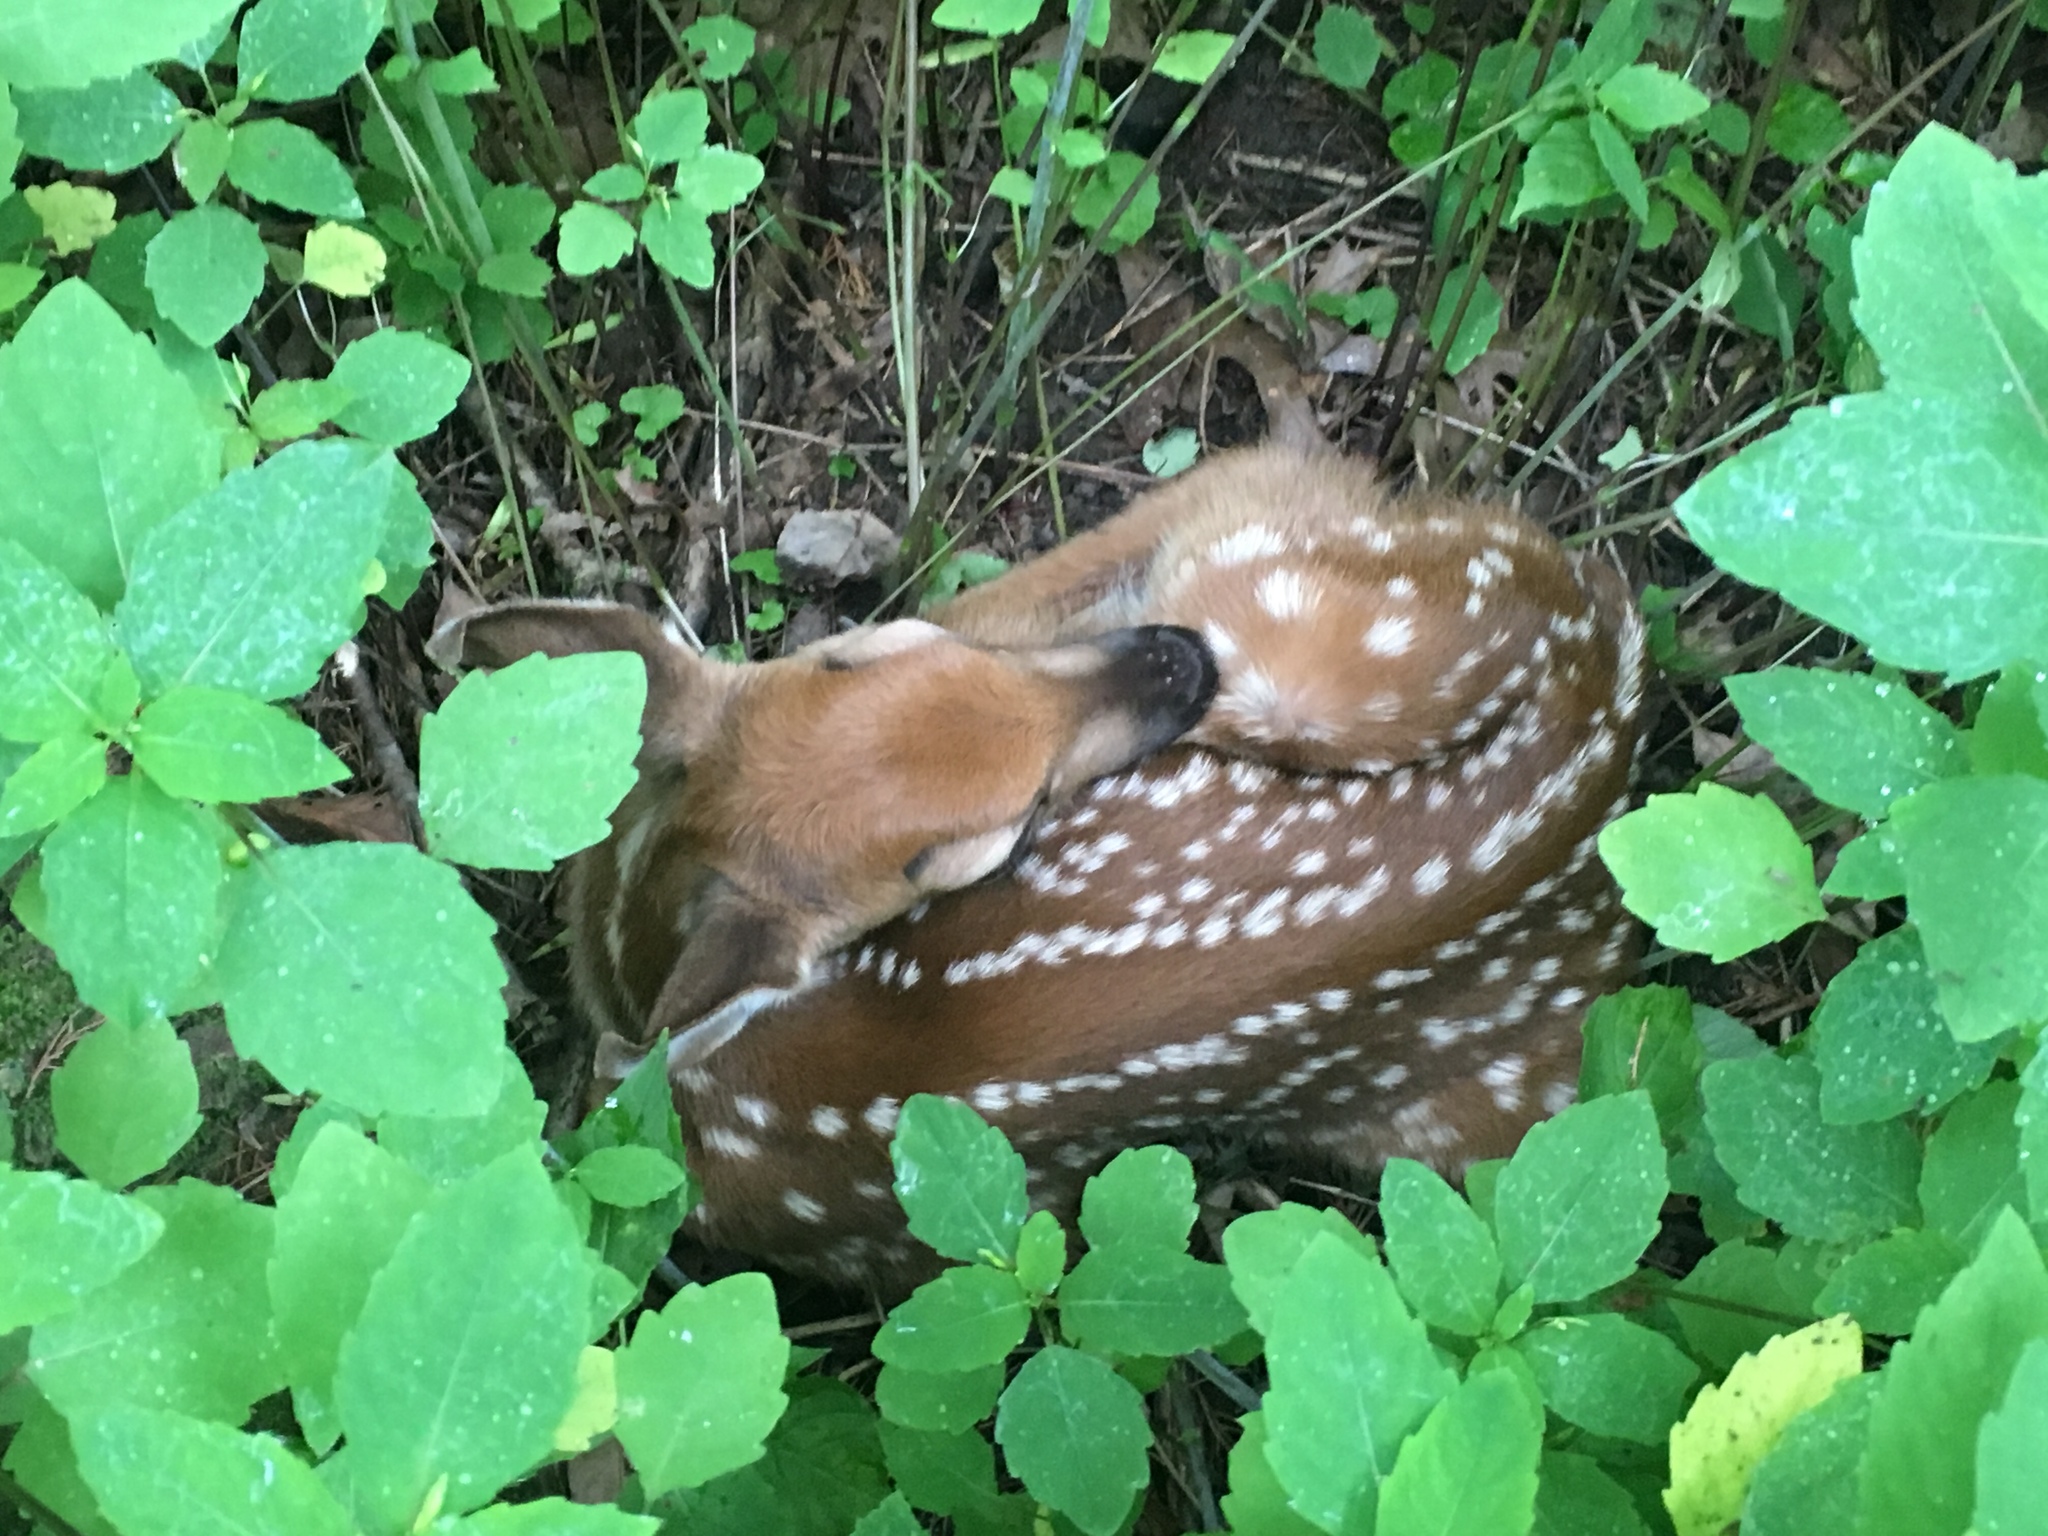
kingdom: Animalia
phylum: Chordata
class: Mammalia
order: Artiodactyla
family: Cervidae
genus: Odocoileus
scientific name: Odocoileus virginianus
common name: White-tailed deer
